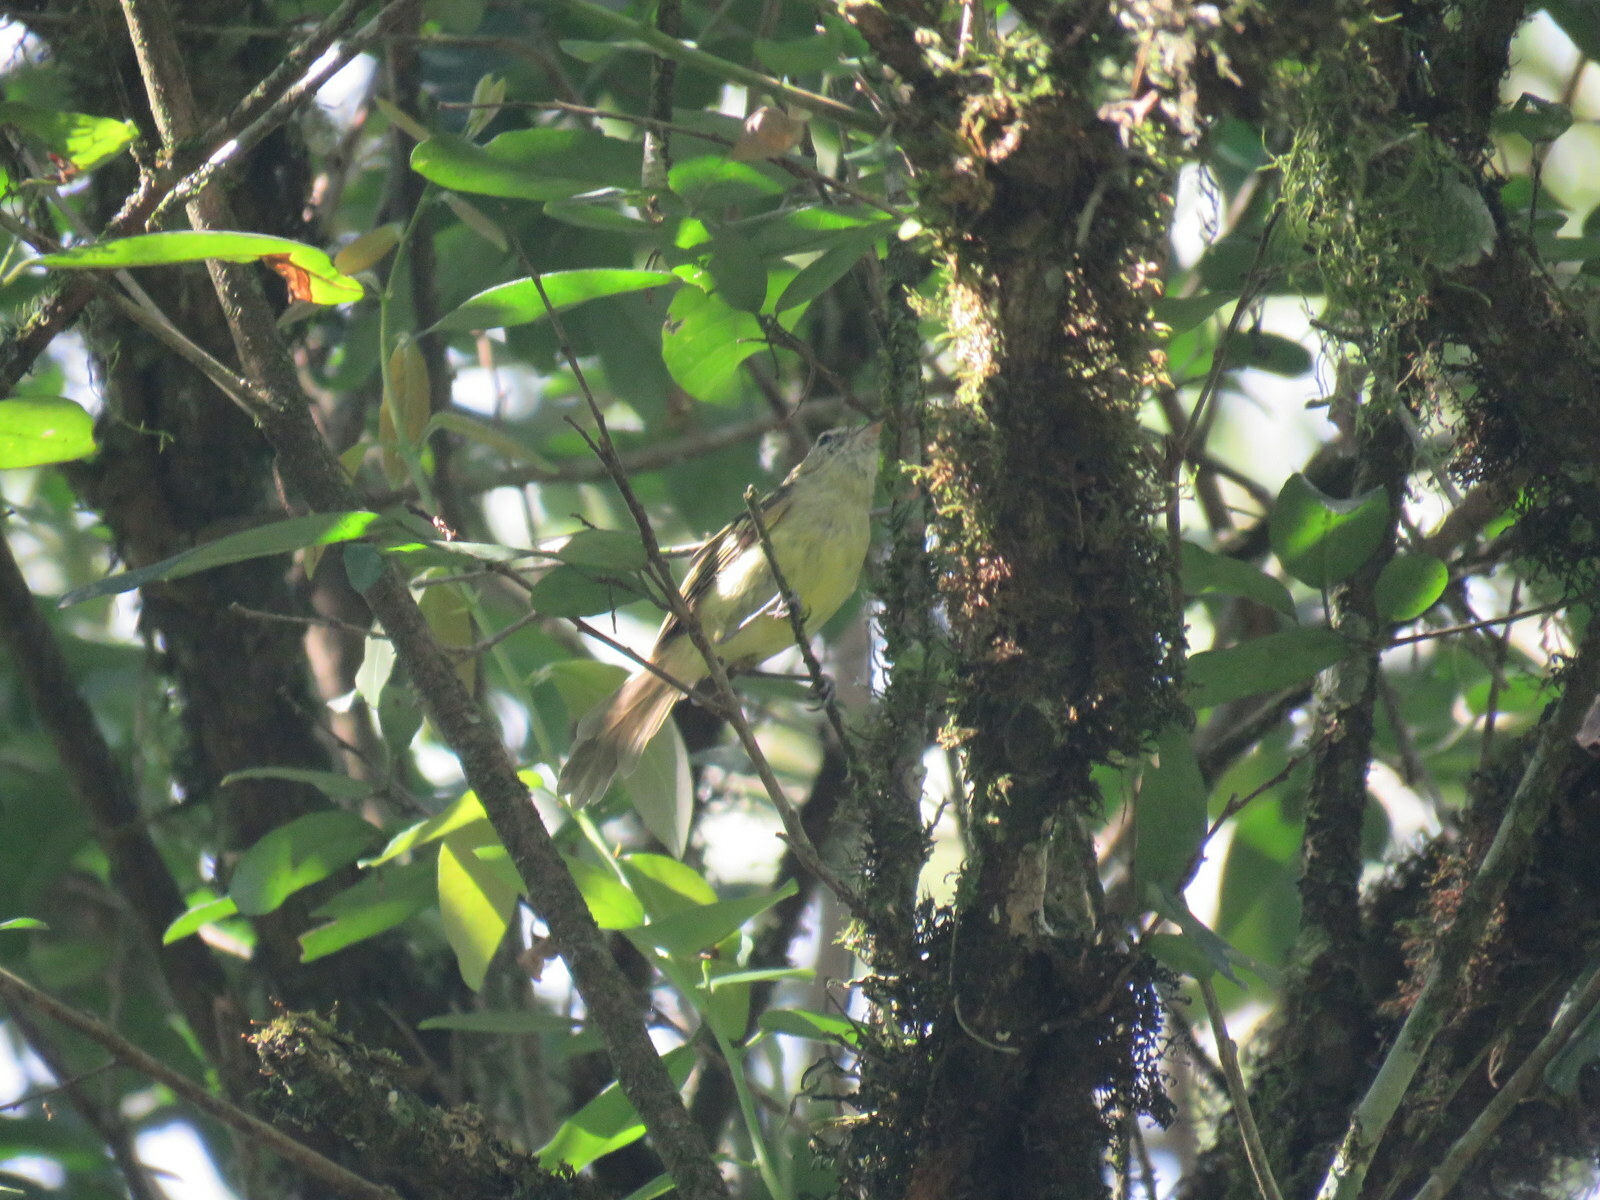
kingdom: Animalia
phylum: Chordata
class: Aves
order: Passeriformes
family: Tyrannidae
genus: Tolmomyias
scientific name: Tolmomyias sulphurescens
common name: Yellow-olive flycatcher
